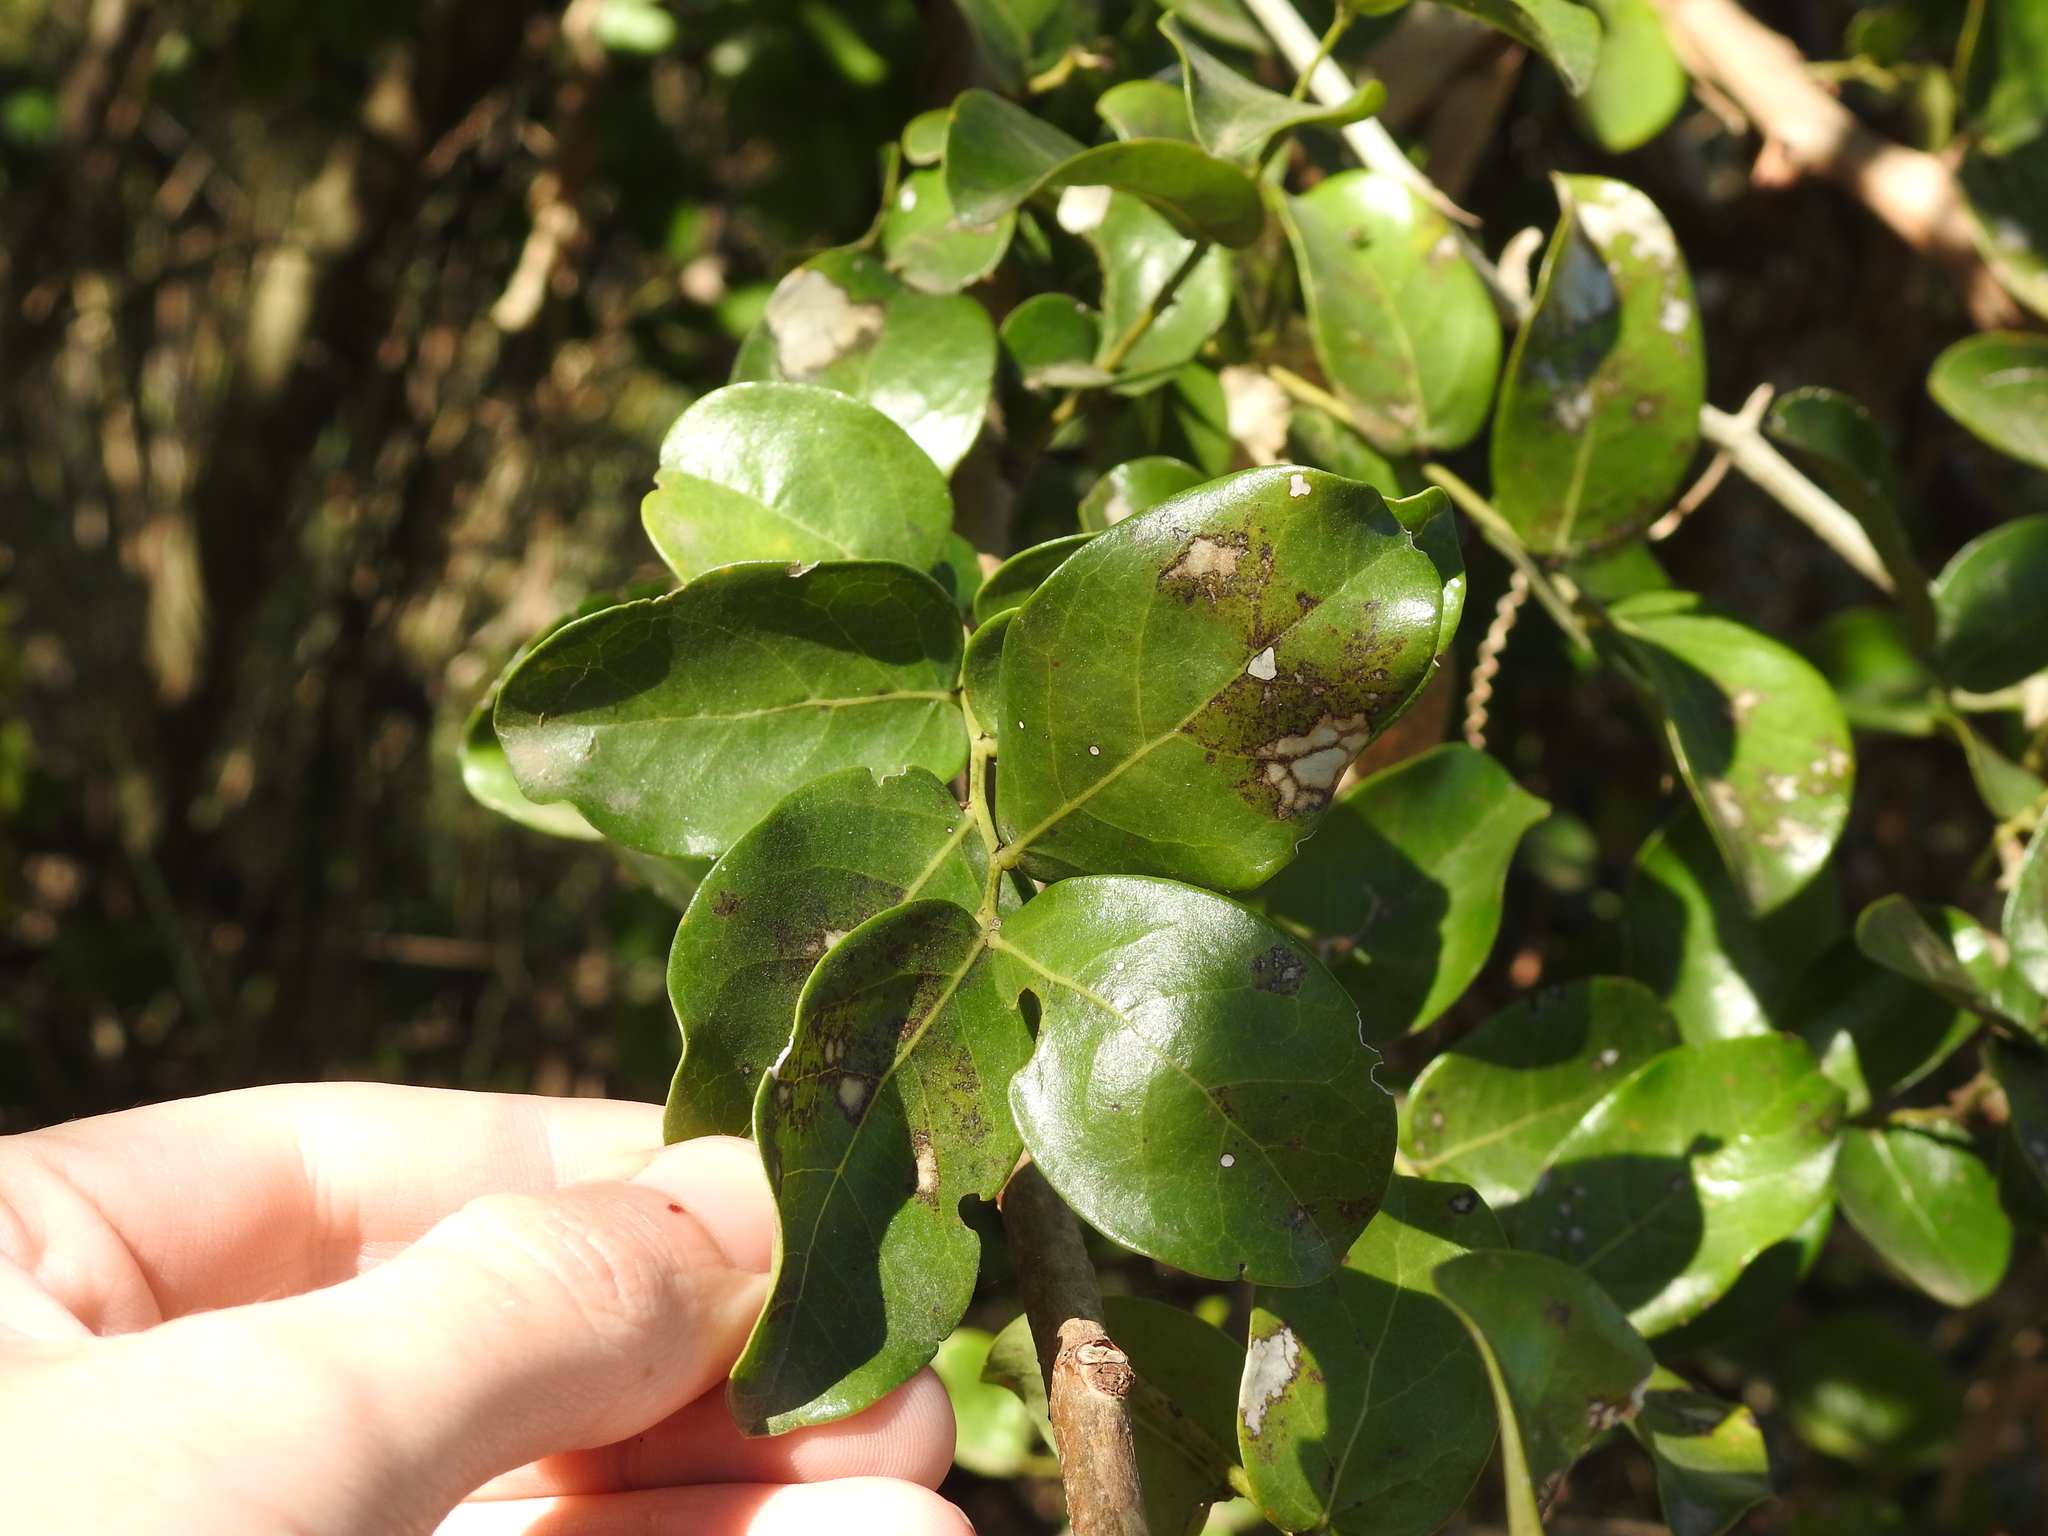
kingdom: Plantae
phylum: Tracheophyta
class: Magnoliopsida
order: Malpighiales
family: Phyllanthaceae
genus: Phyllanthus
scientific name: Phyllanthus chacoensis
